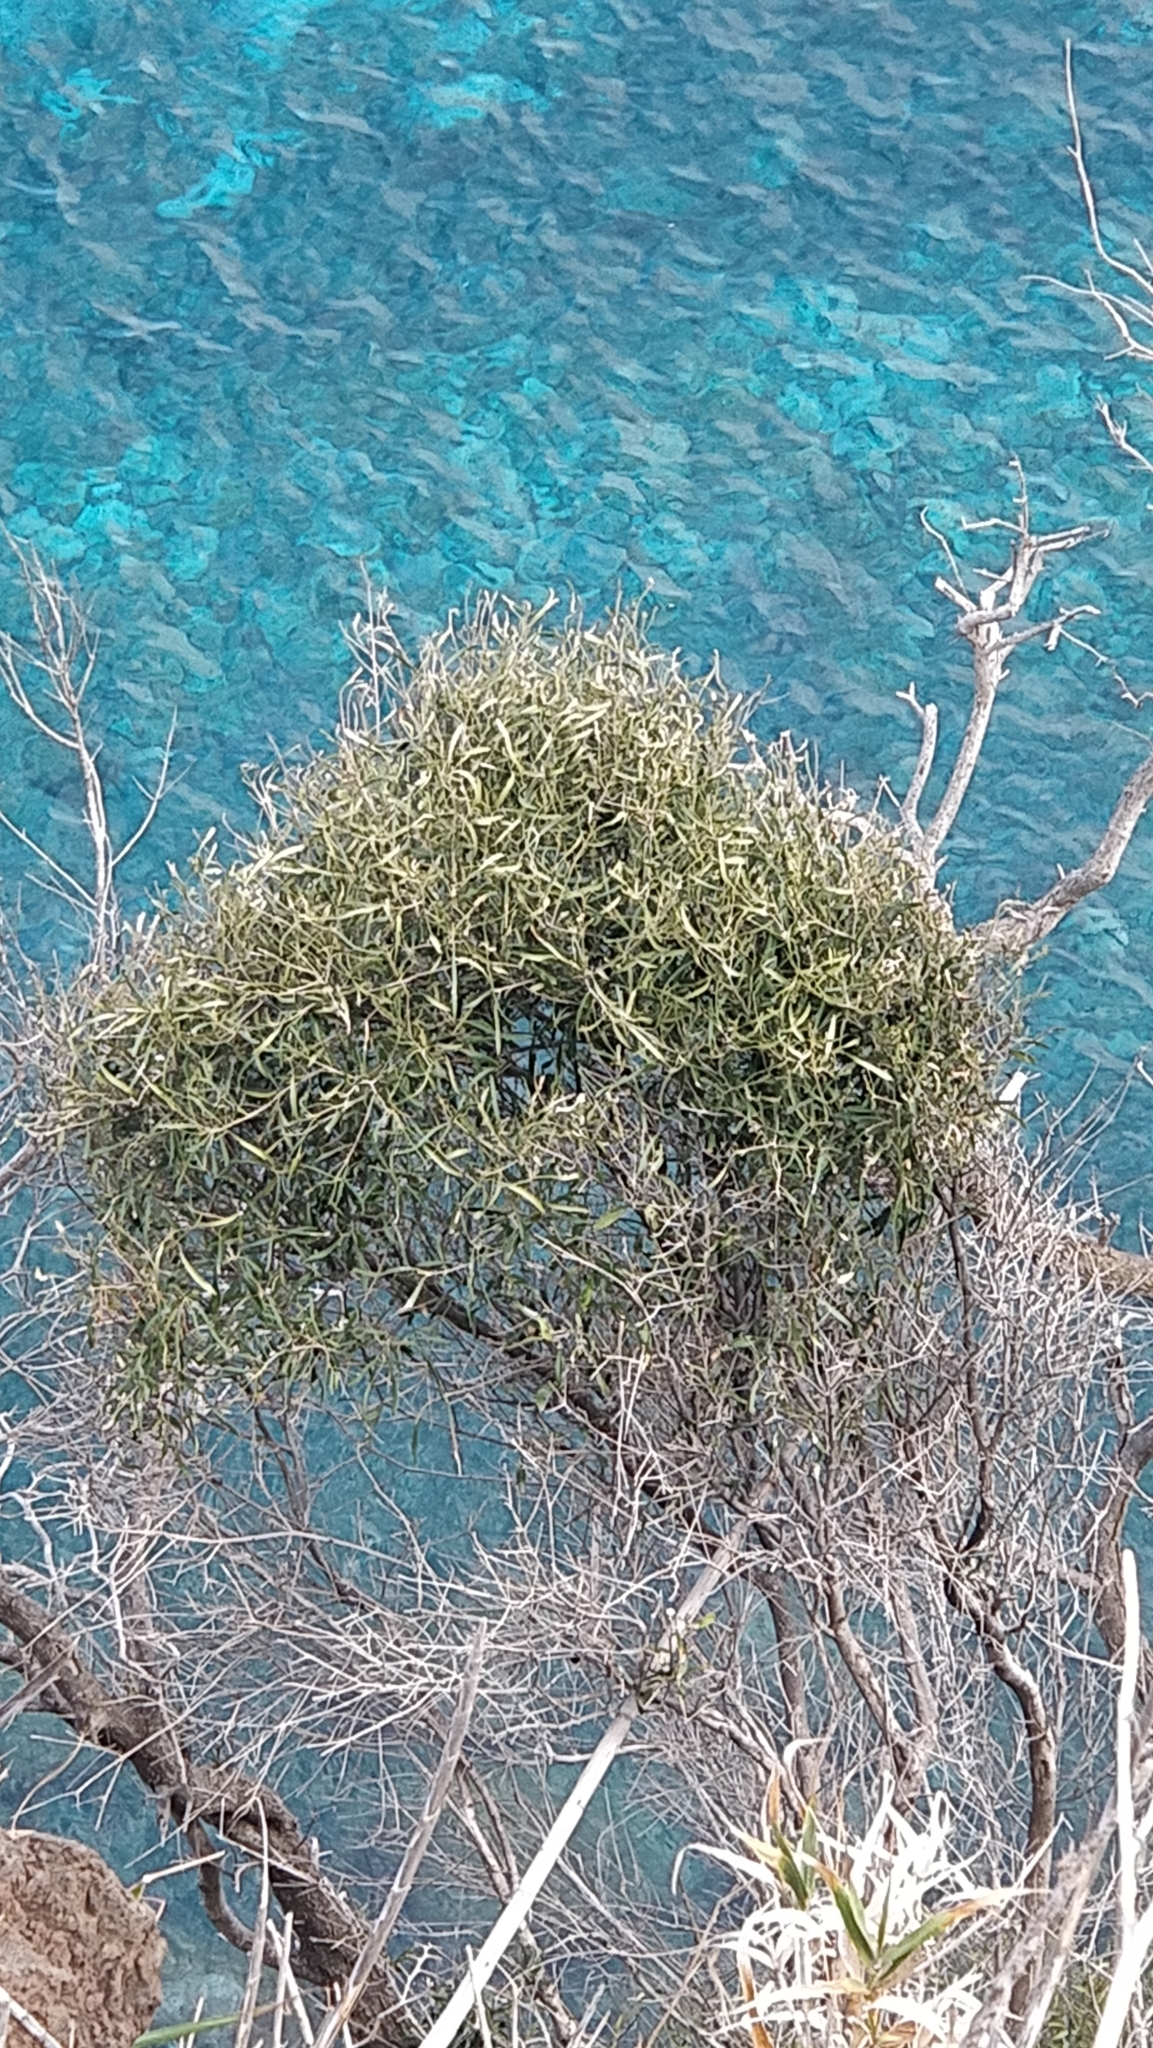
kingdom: Plantae
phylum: Tracheophyta
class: Magnoliopsida
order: Lamiales
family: Oleaceae
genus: Olea
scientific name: Olea europaea
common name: Olive
